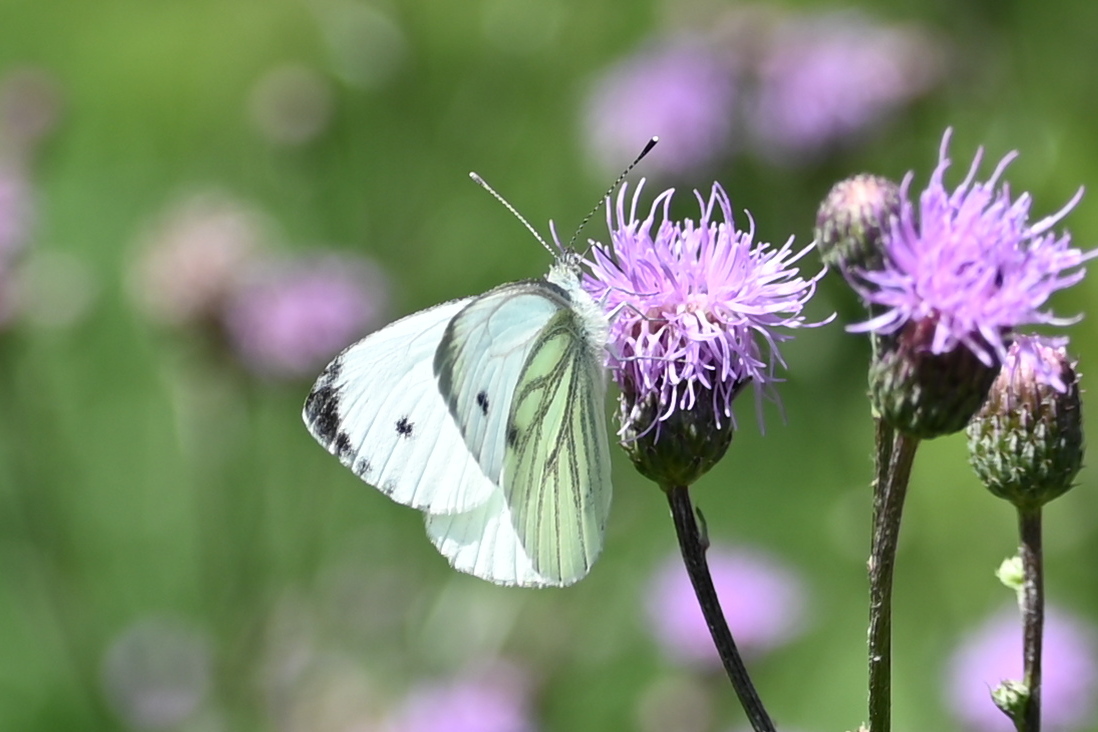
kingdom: Animalia
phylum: Arthropoda
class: Insecta
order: Lepidoptera
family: Pieridae
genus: Pieris
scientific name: Pieris napi
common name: Green-veined white
